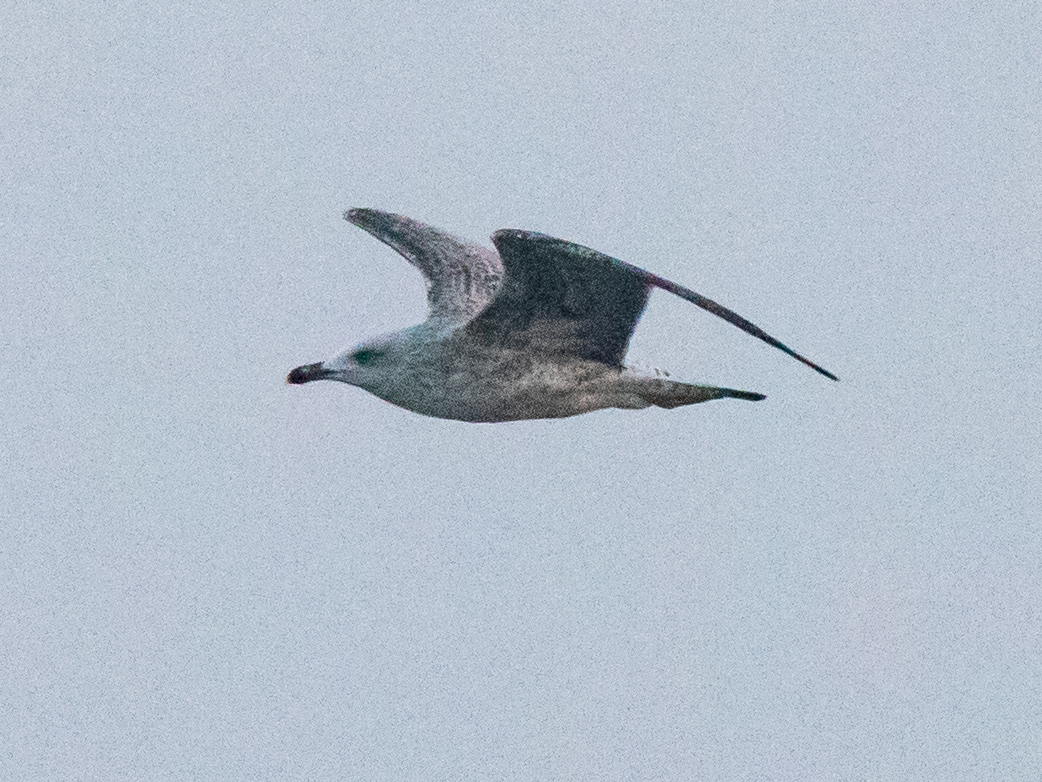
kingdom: Animalia
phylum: Chordata
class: Aves
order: Charadriiformes
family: Laridae
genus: Larus
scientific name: Larus michahellis
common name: Yellow-legged gull
